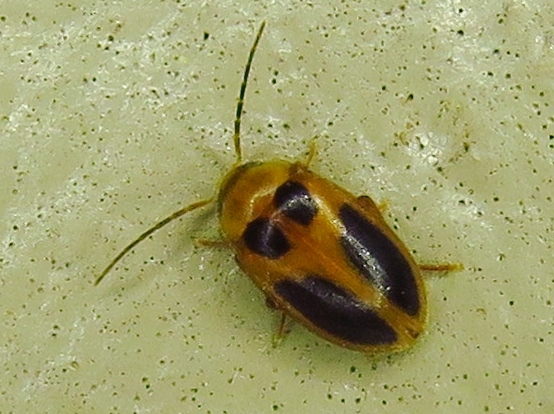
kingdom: Animalia
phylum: Arthropoda
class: Insecta
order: Coleoptera
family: Scirtidae
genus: Sacodes
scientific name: Sacodes pulchella
